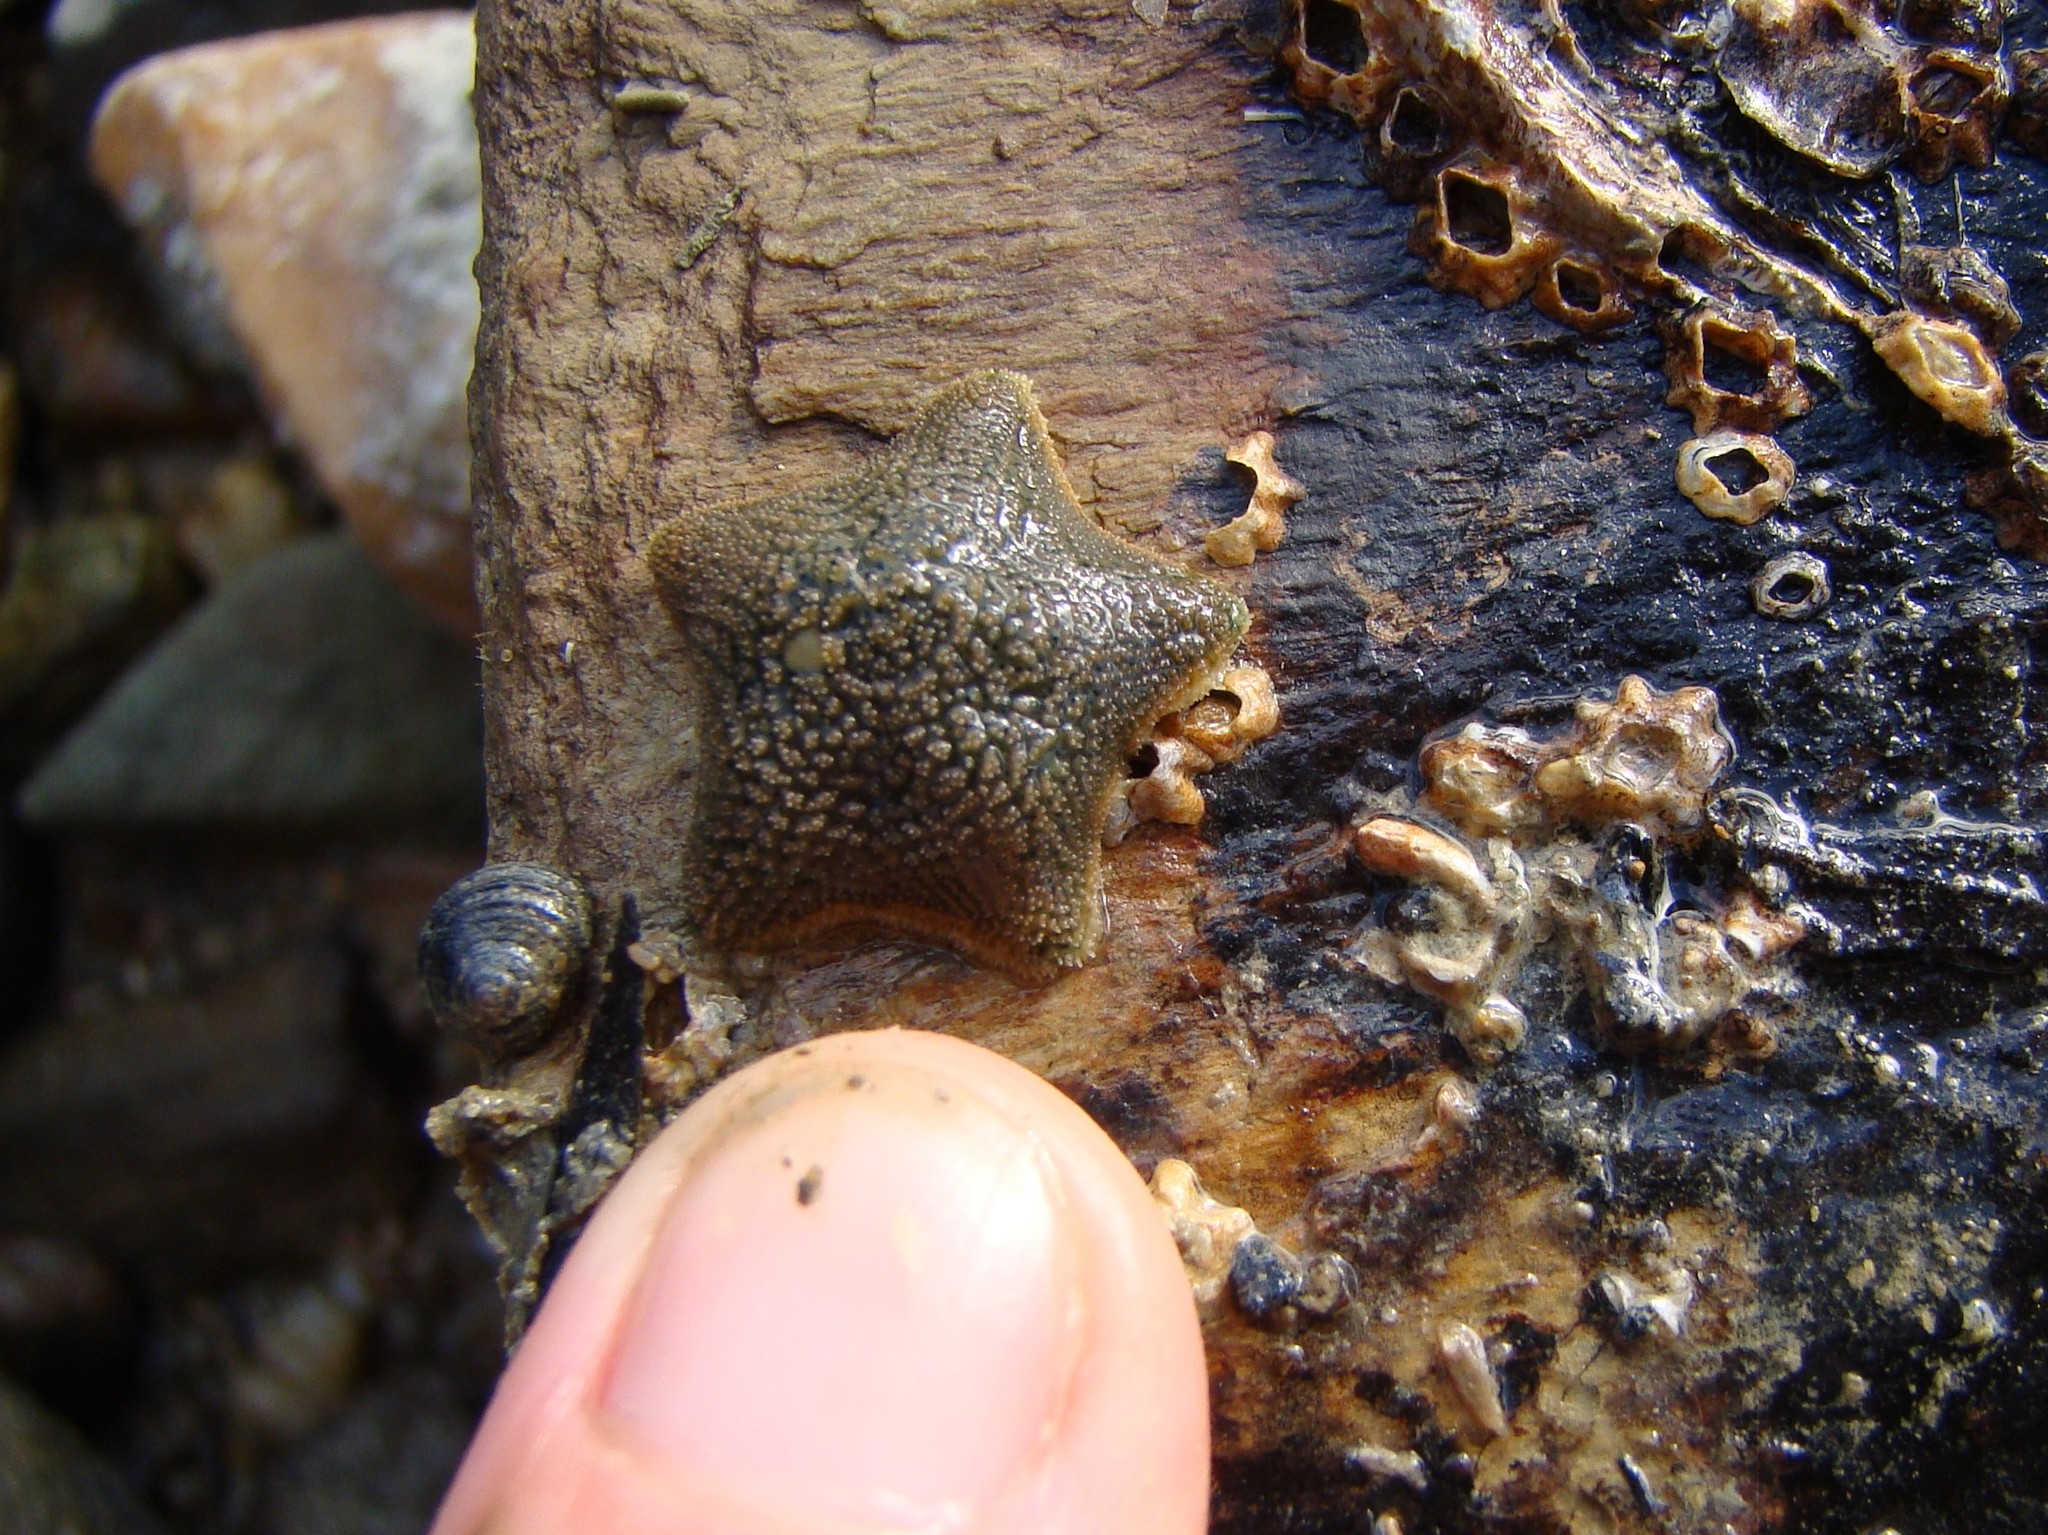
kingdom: Animalia
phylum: Echinodermata
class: Asteroidea
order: Valvatida
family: Asterinidae
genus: Patiriella
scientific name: Patiriella regularis
